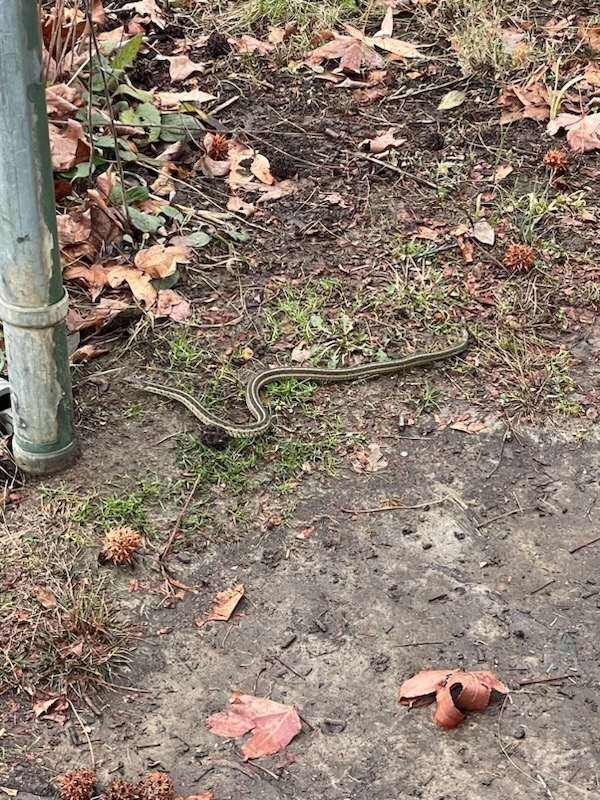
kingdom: Animalia
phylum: Chordata
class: Squamata
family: Colubridae
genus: Thamnophis
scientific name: Thamnophis sirtalis
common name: Common garter snake
